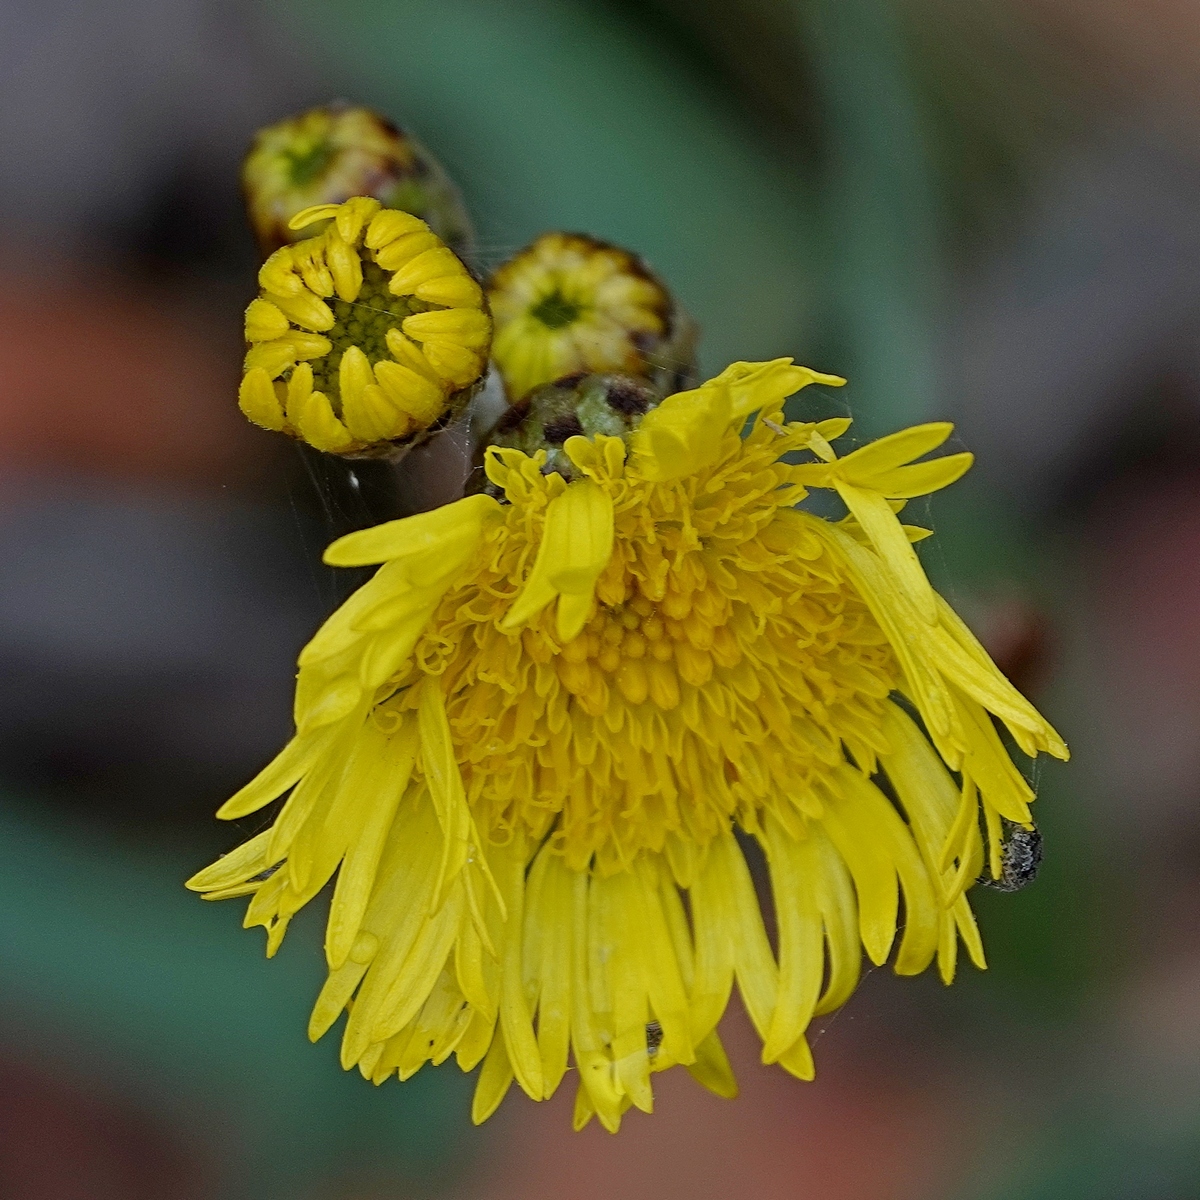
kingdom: Plantae
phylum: Tracheophyta
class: Magnoliopsida
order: Asterales
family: Asteraceae
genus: Podolepis
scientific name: Podolepis hieracioides
